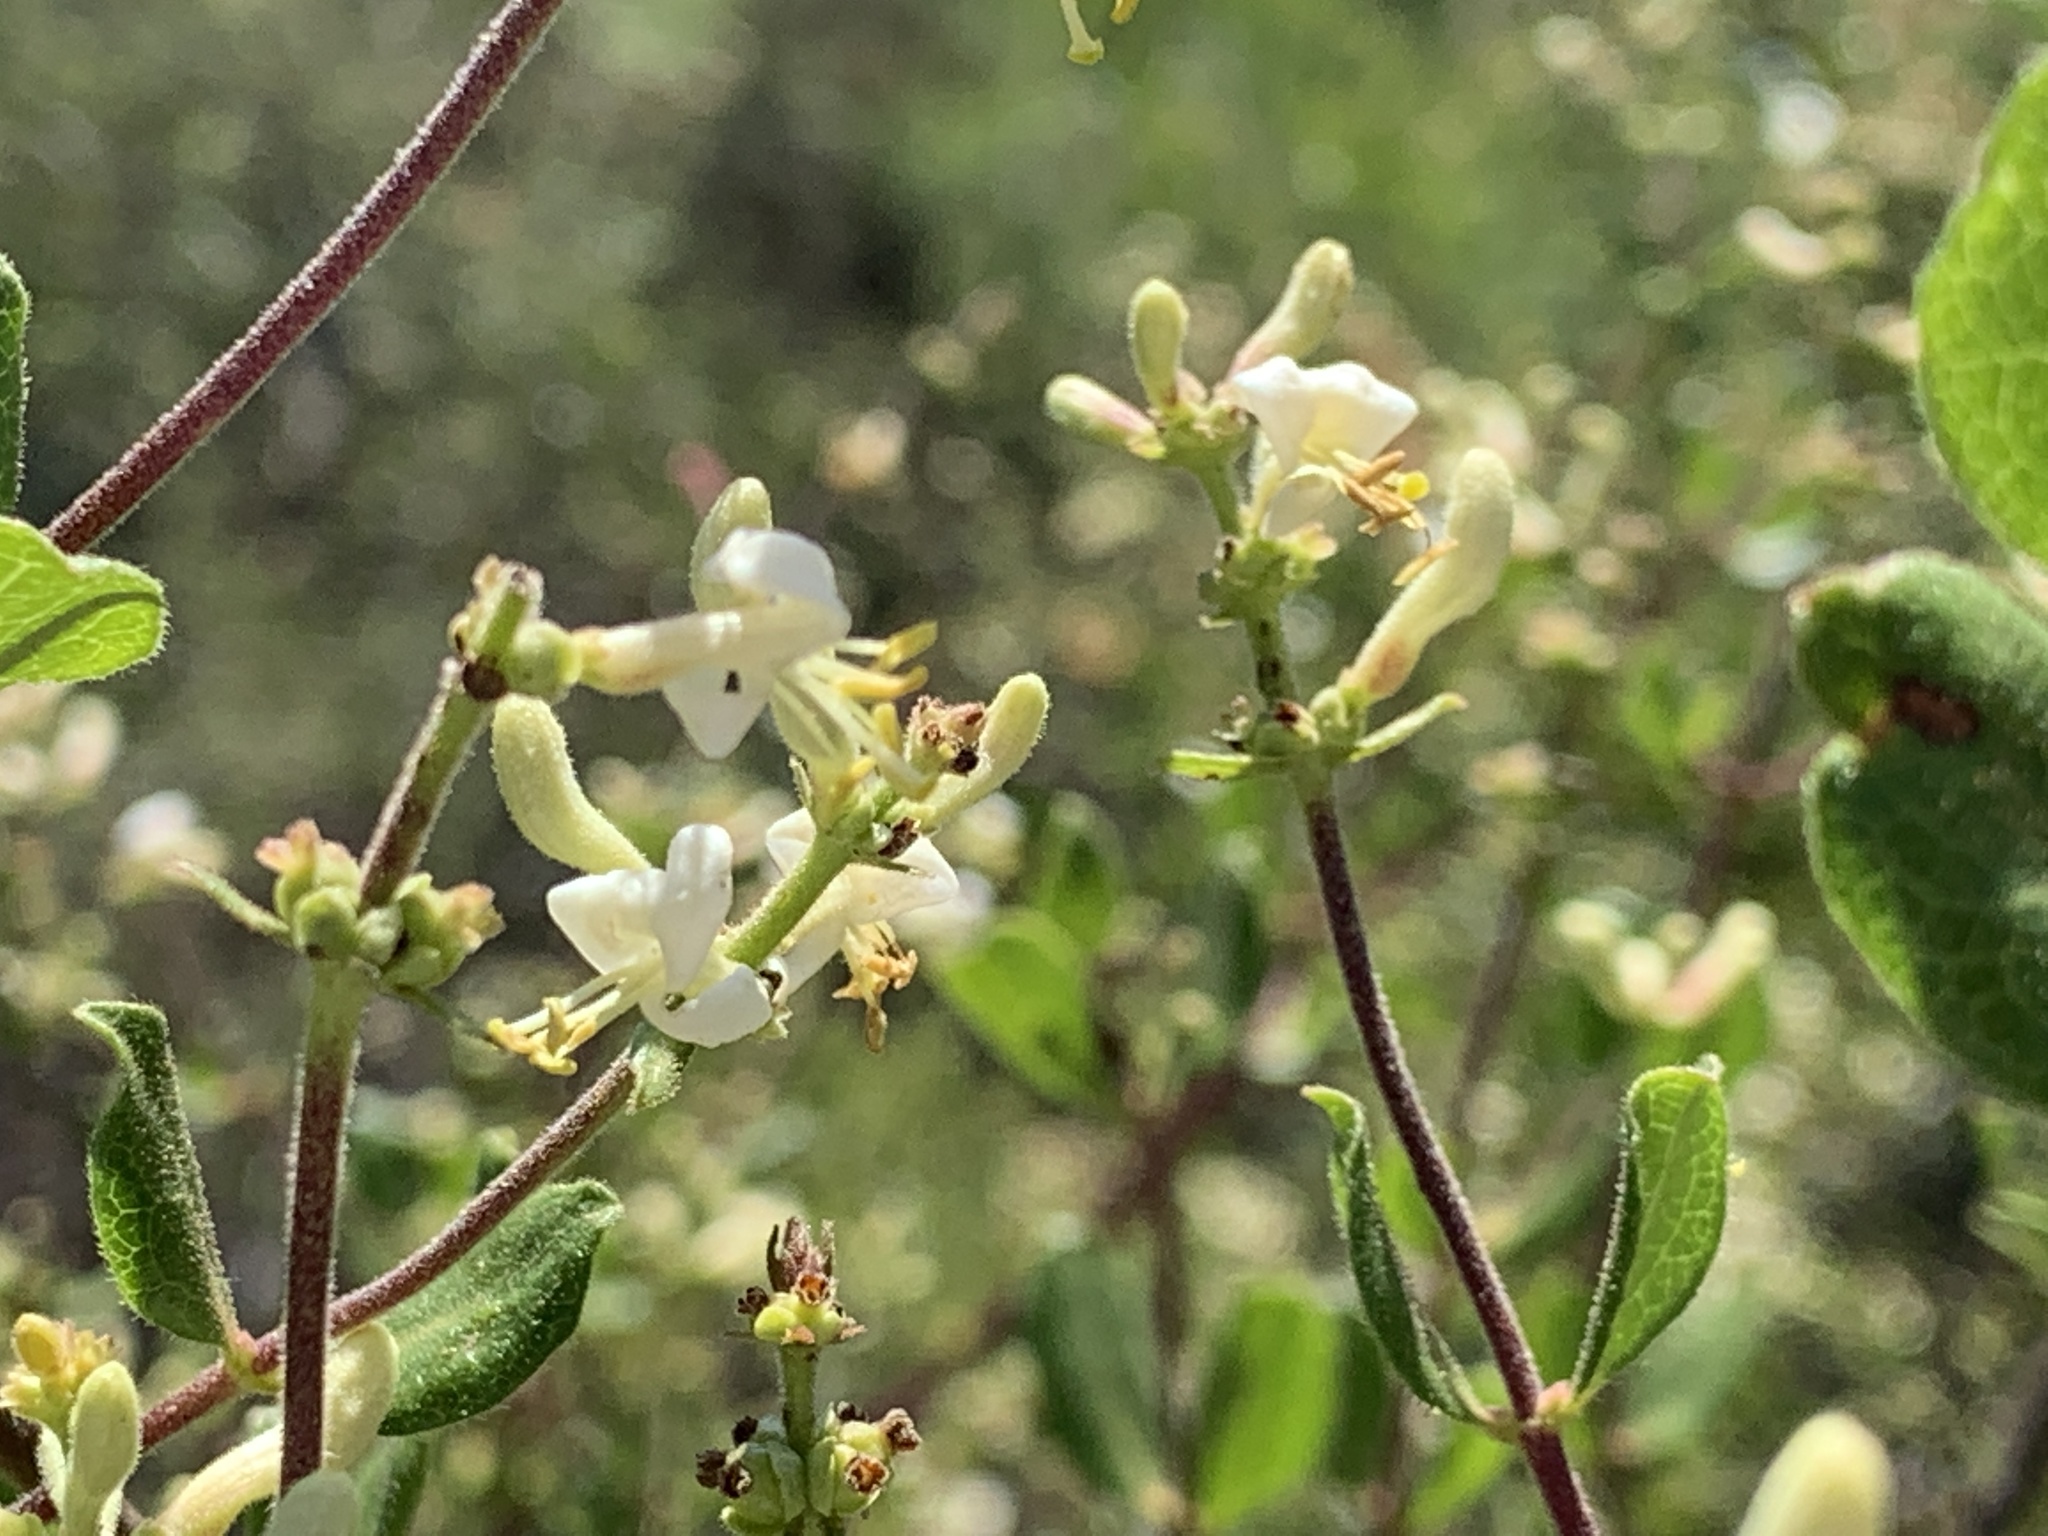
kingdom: Plantae
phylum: Tracheophyta
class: Magnoliopsida
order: Dipsacales
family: Caprifoliaceae
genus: Lonicera
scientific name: Lonicera subspicata
